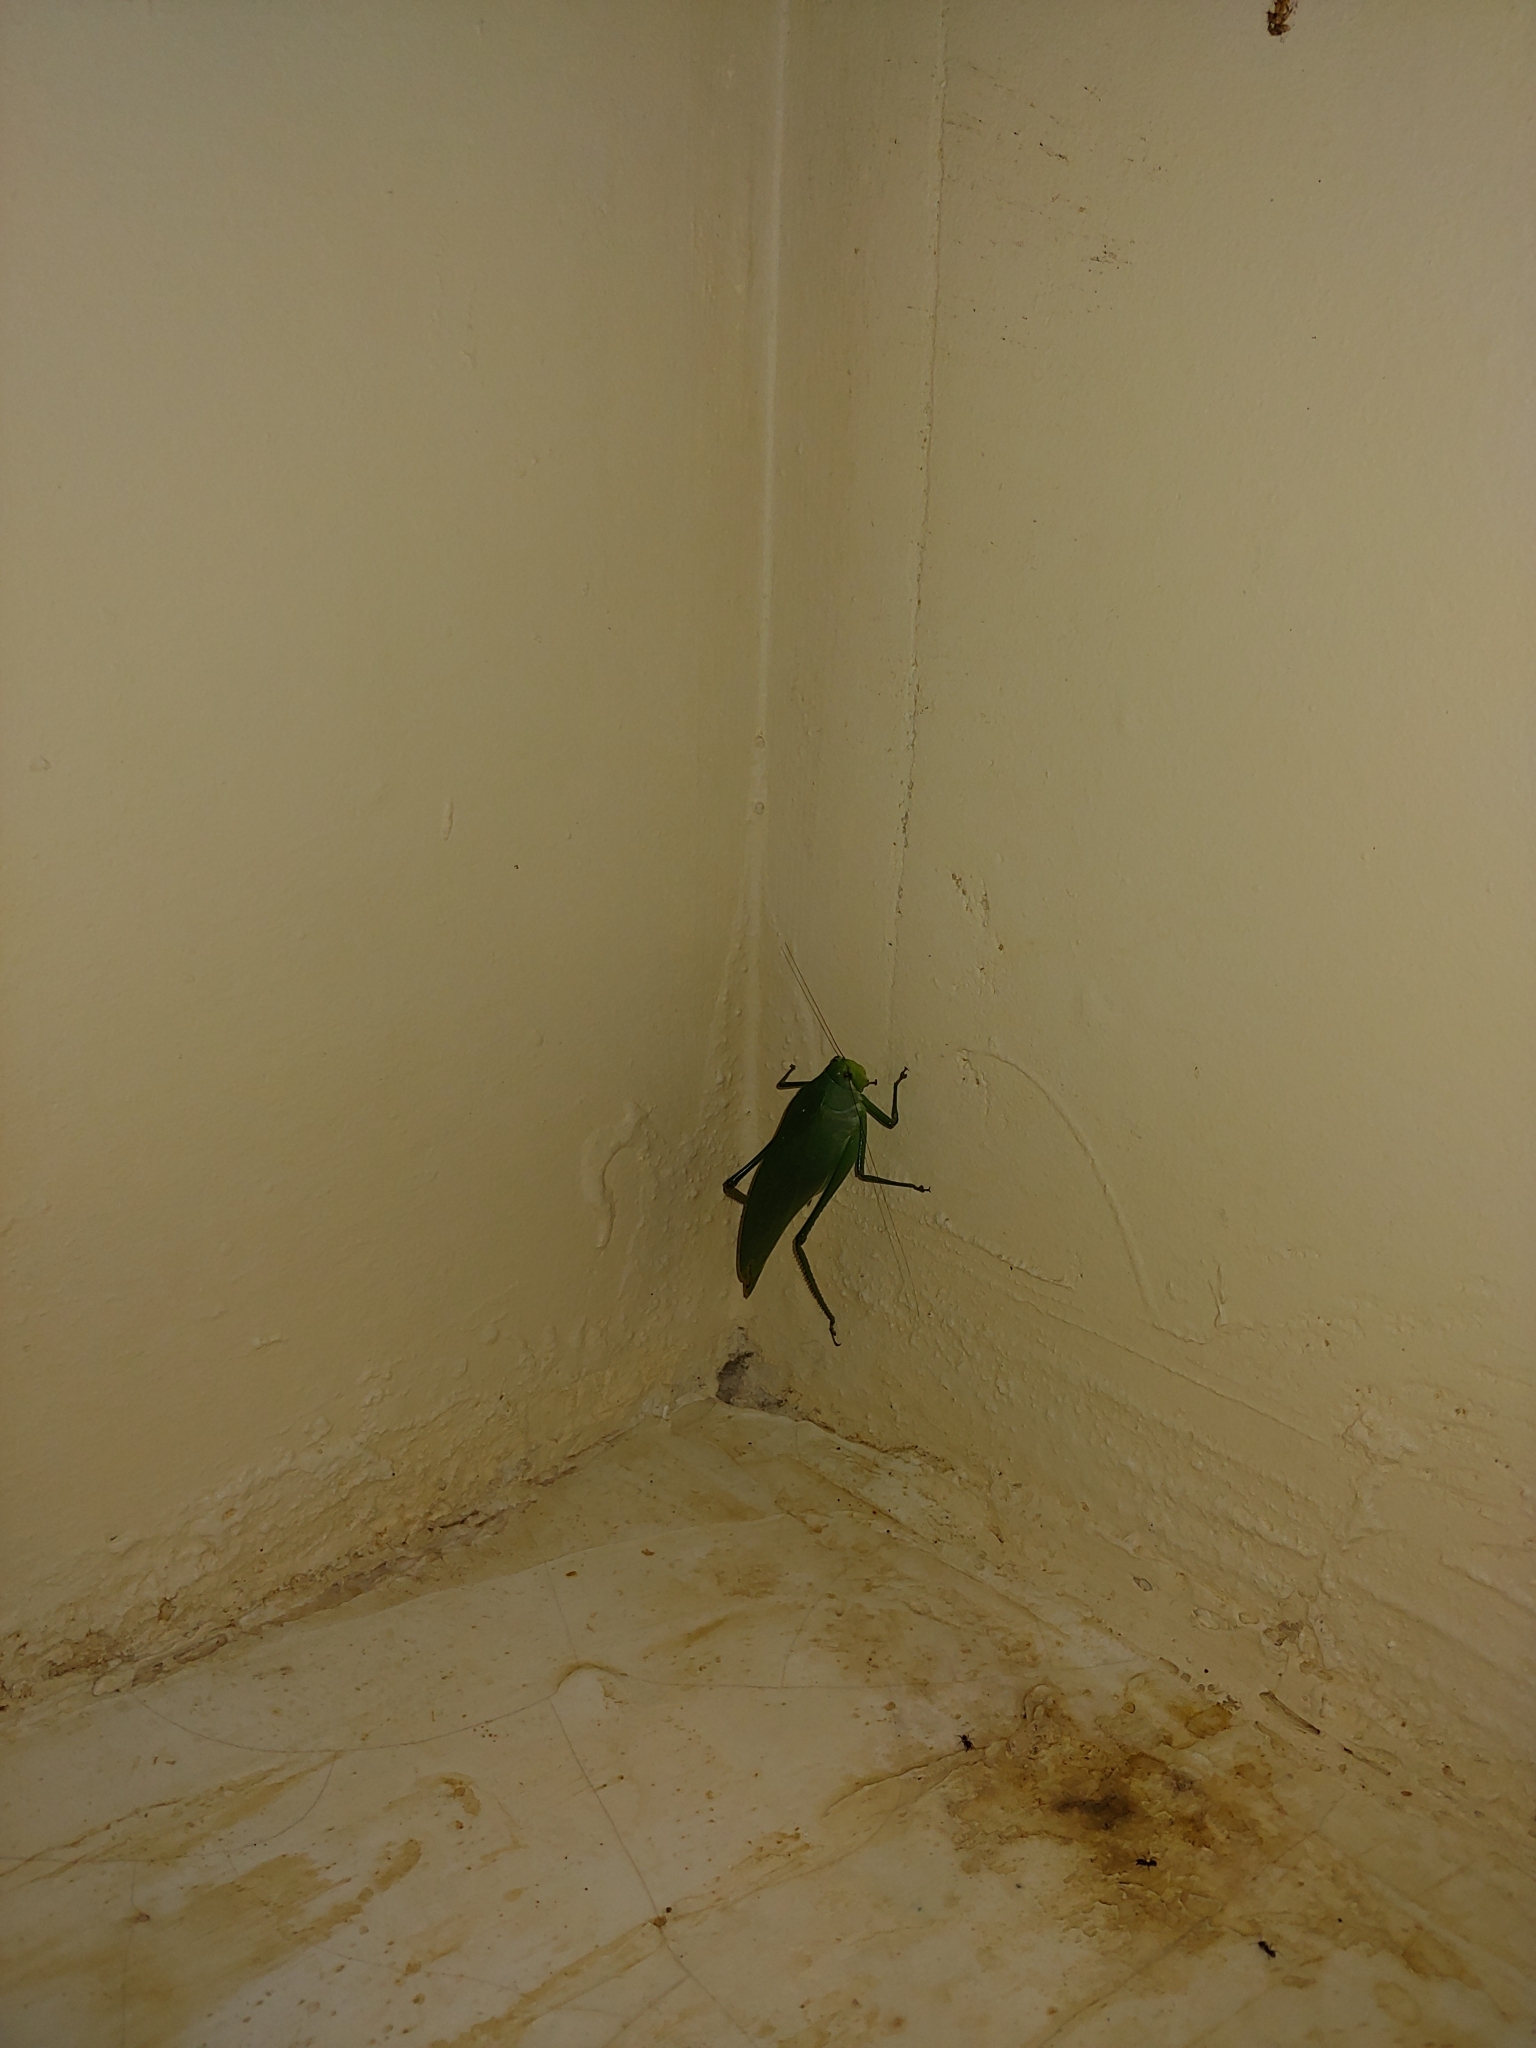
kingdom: Animalia
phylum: Arthropoda
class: Insecta
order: Orthoptera
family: Tettigoniidae
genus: Philophyllia
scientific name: Philophyllia ingens
